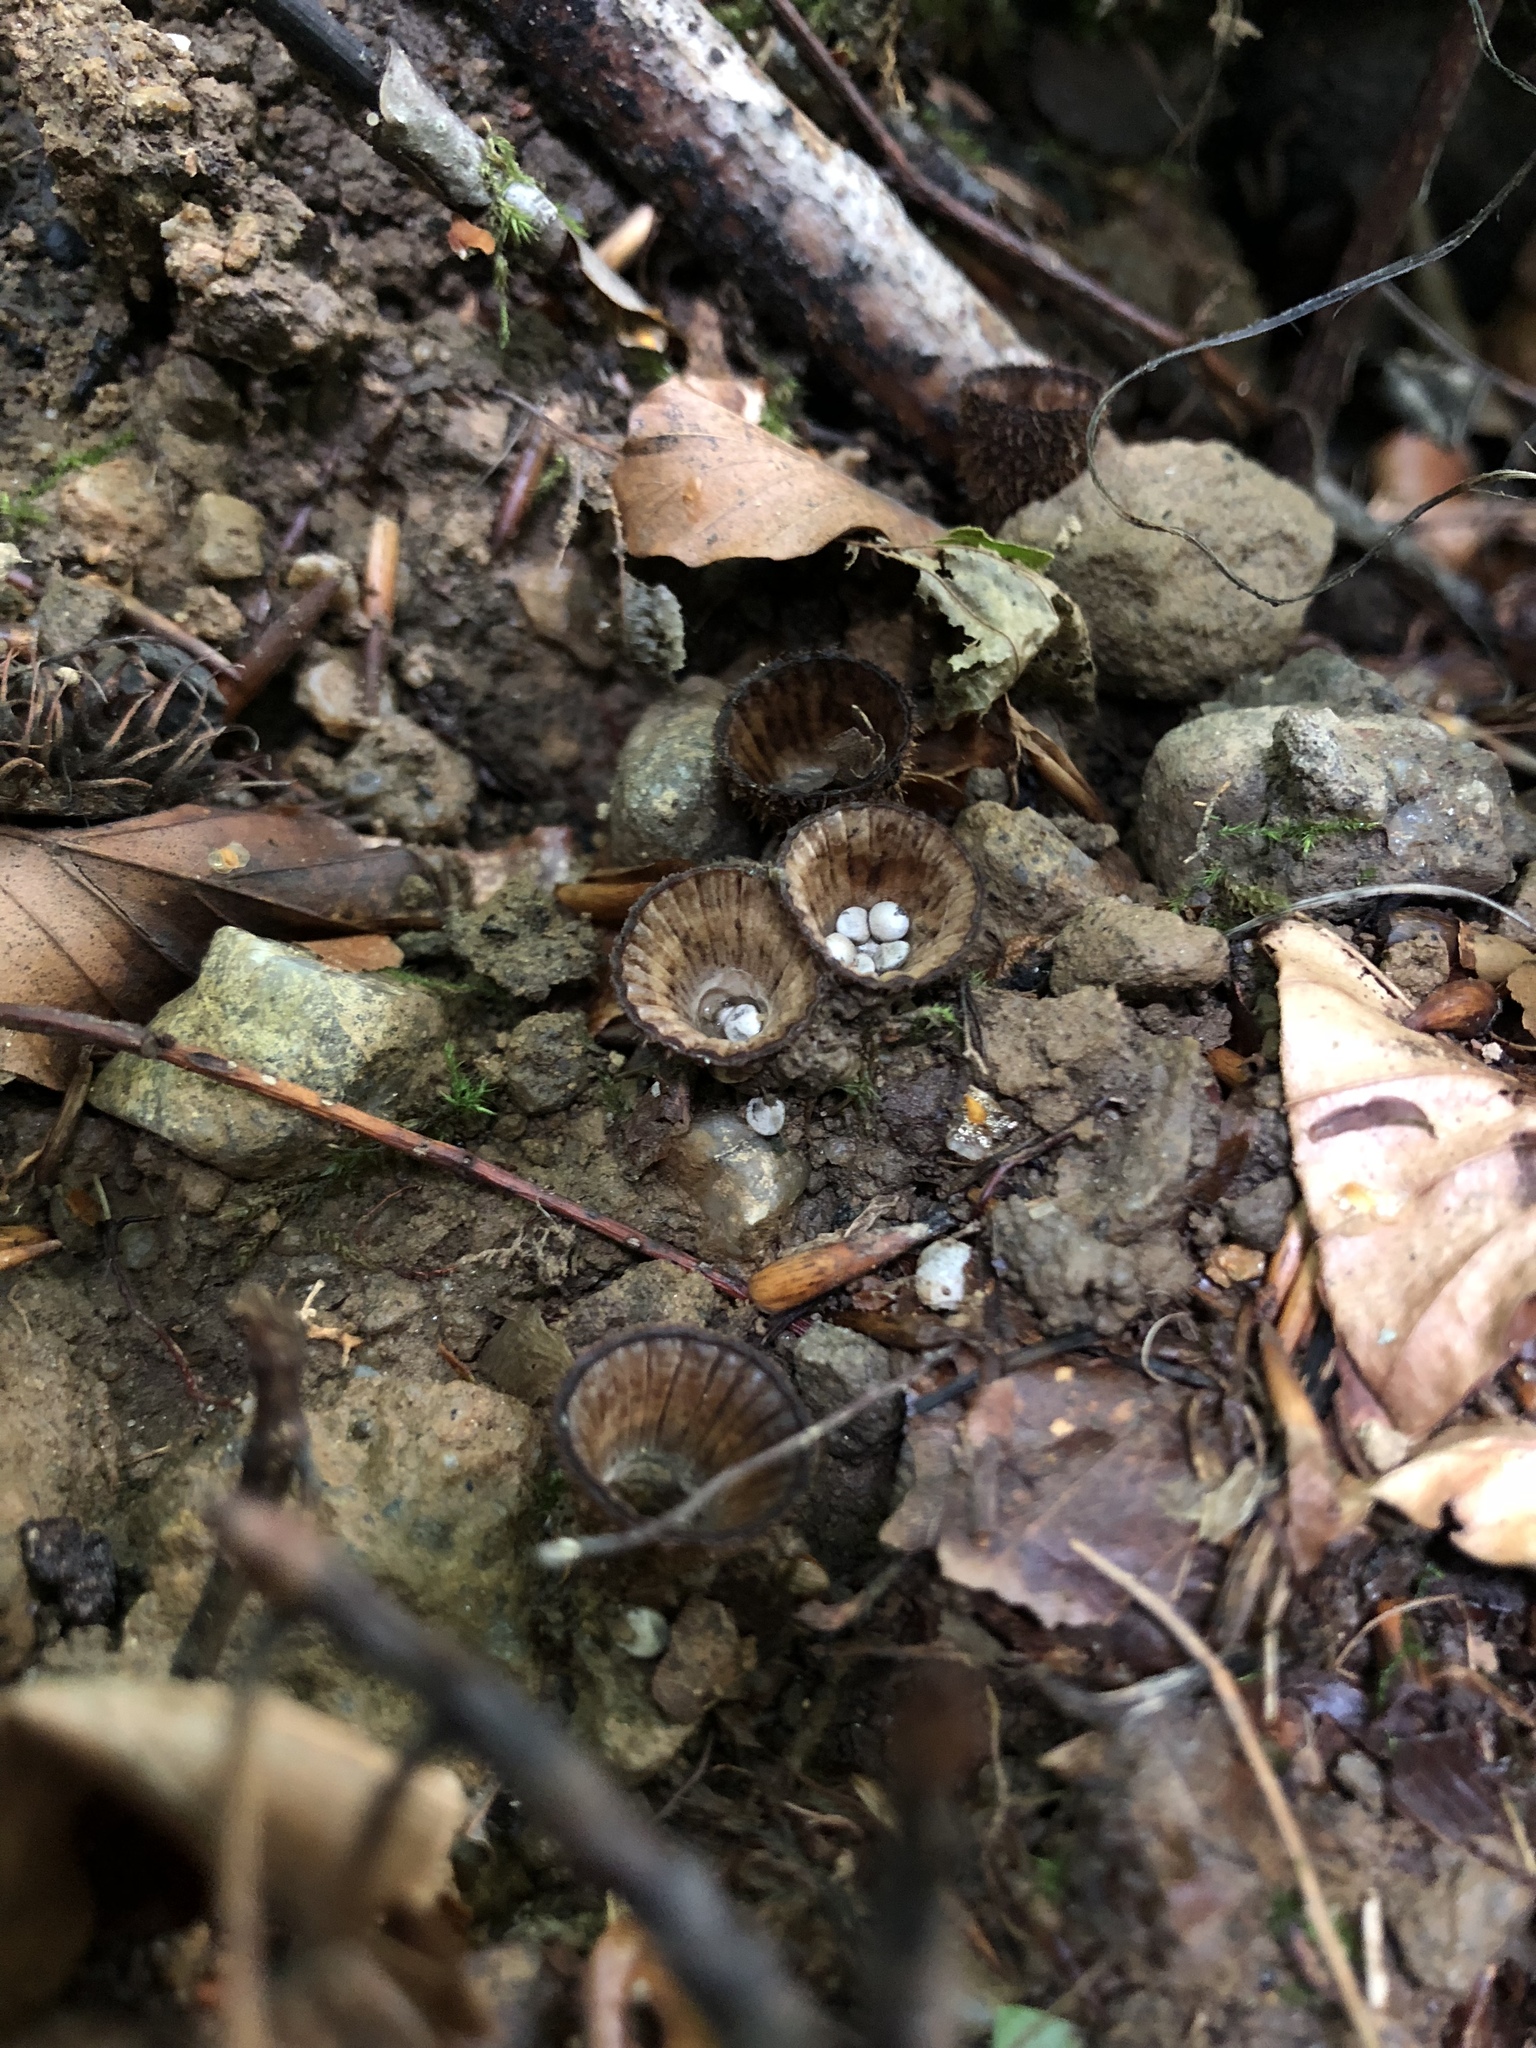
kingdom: Fungi
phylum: Basidiomycota
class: Agaricomycetes
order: Agaricales
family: Agaricaceae
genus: Cyathus
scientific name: Cyathus striatus
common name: Fluted bird's nest
